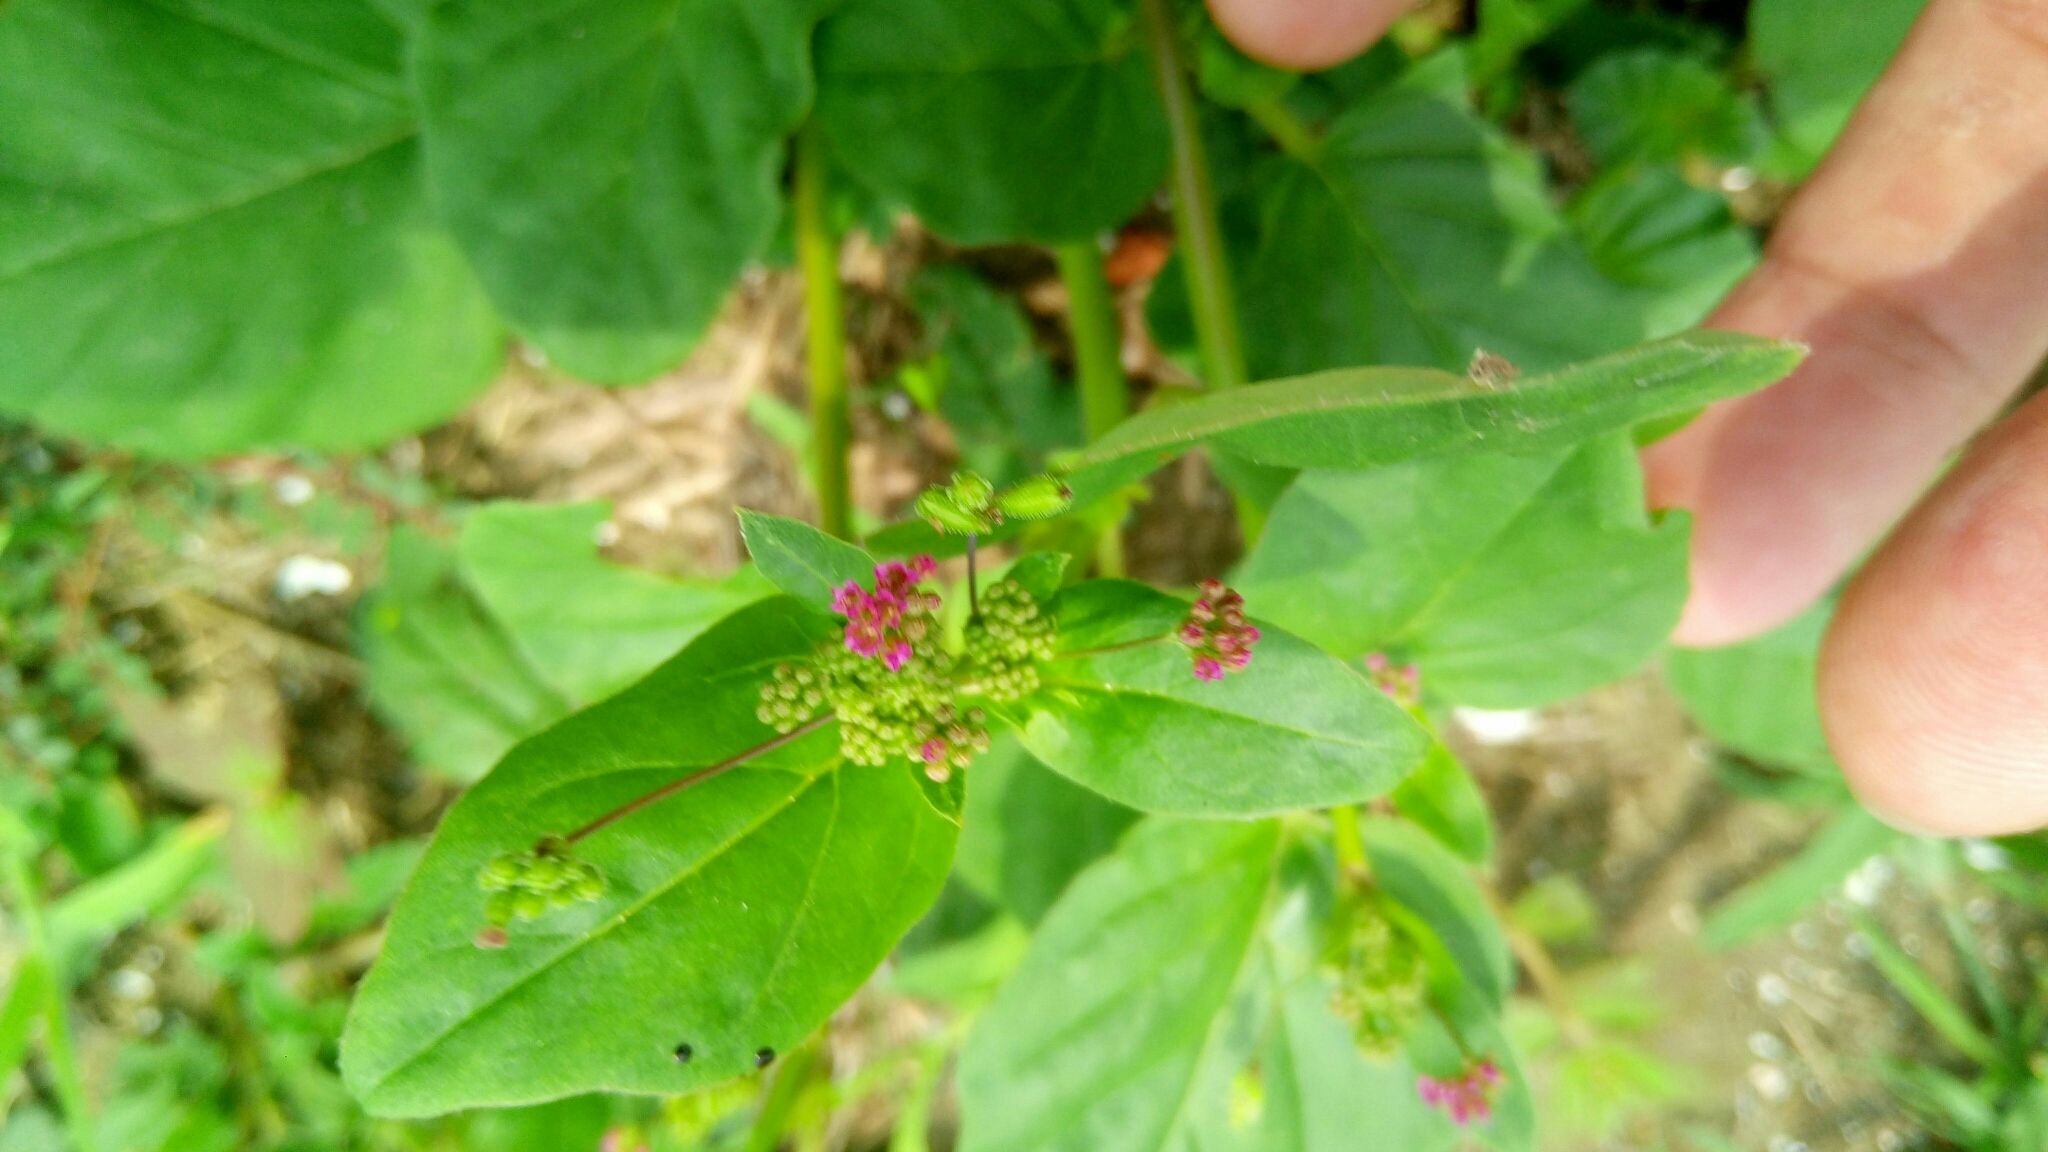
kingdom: Plantae
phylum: Tracheophyta
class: Magnoliopsida
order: Caryophyllales
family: Nyctaginaceae
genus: Boerhavia
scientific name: Boerhavia coccinea
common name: Scarlet spiderling
